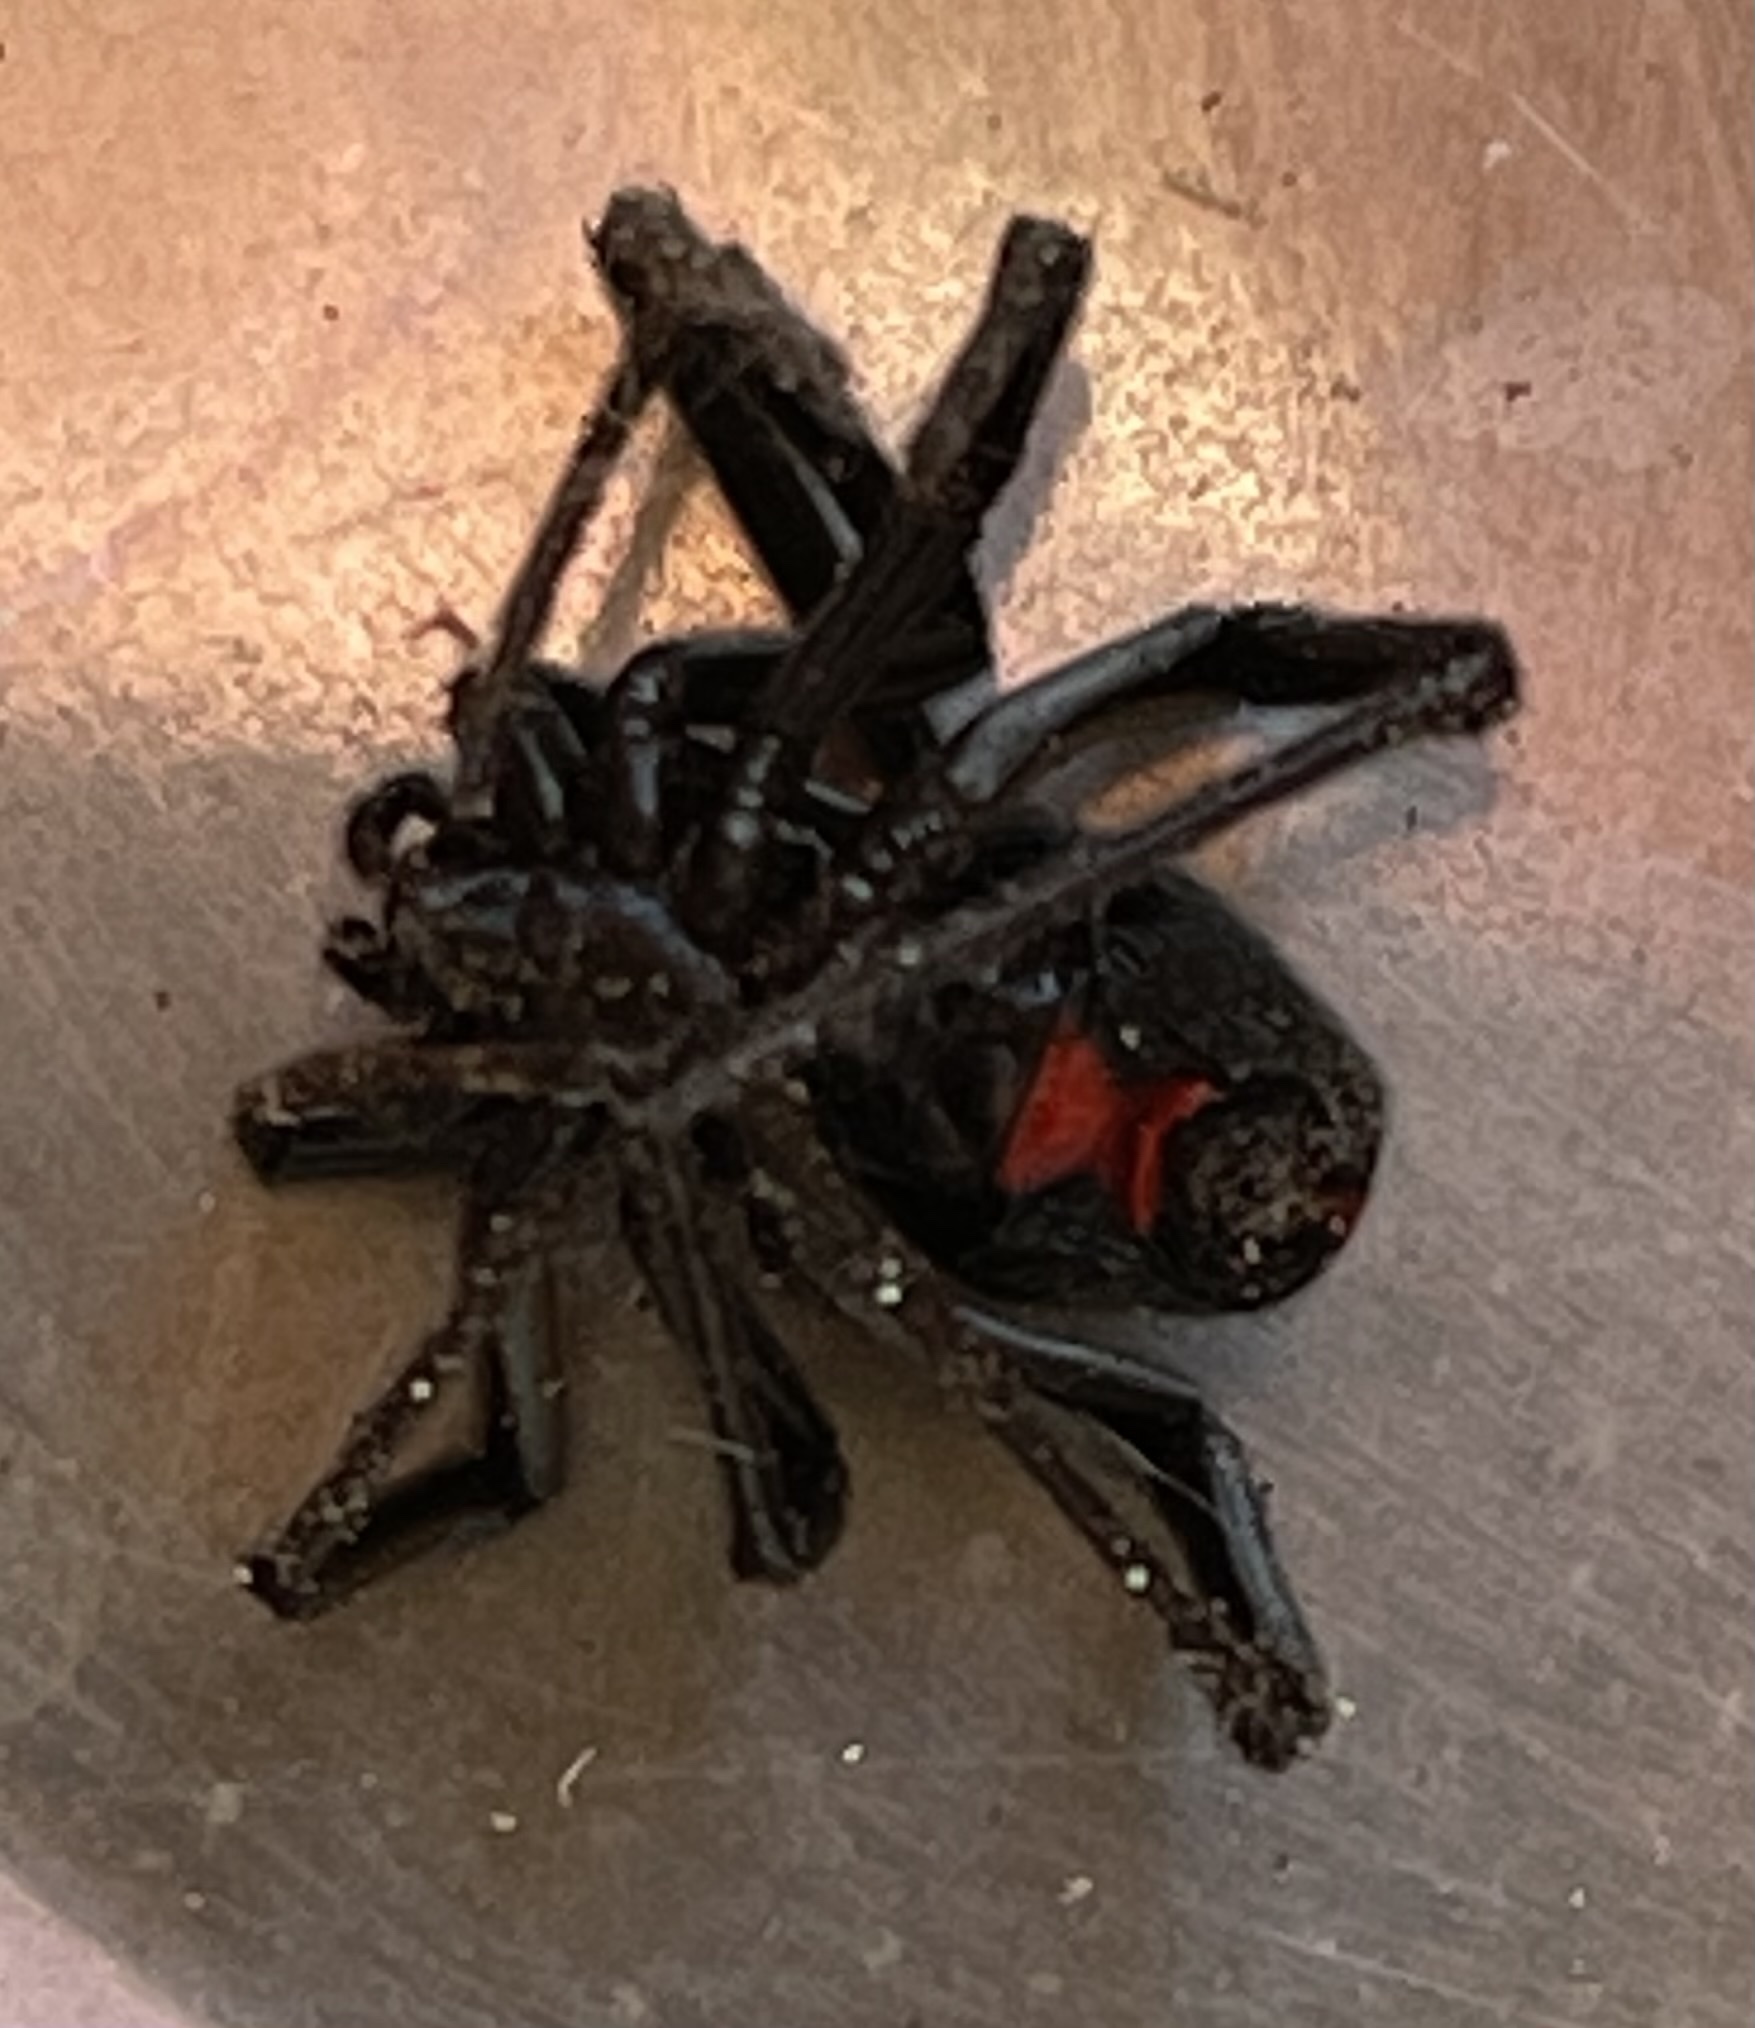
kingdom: Animalia
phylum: Arthropoda
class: Arachnida
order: Araneae
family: Theridiidae
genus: Latrodectus
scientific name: Latrodectus hesperus
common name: Western black widow
